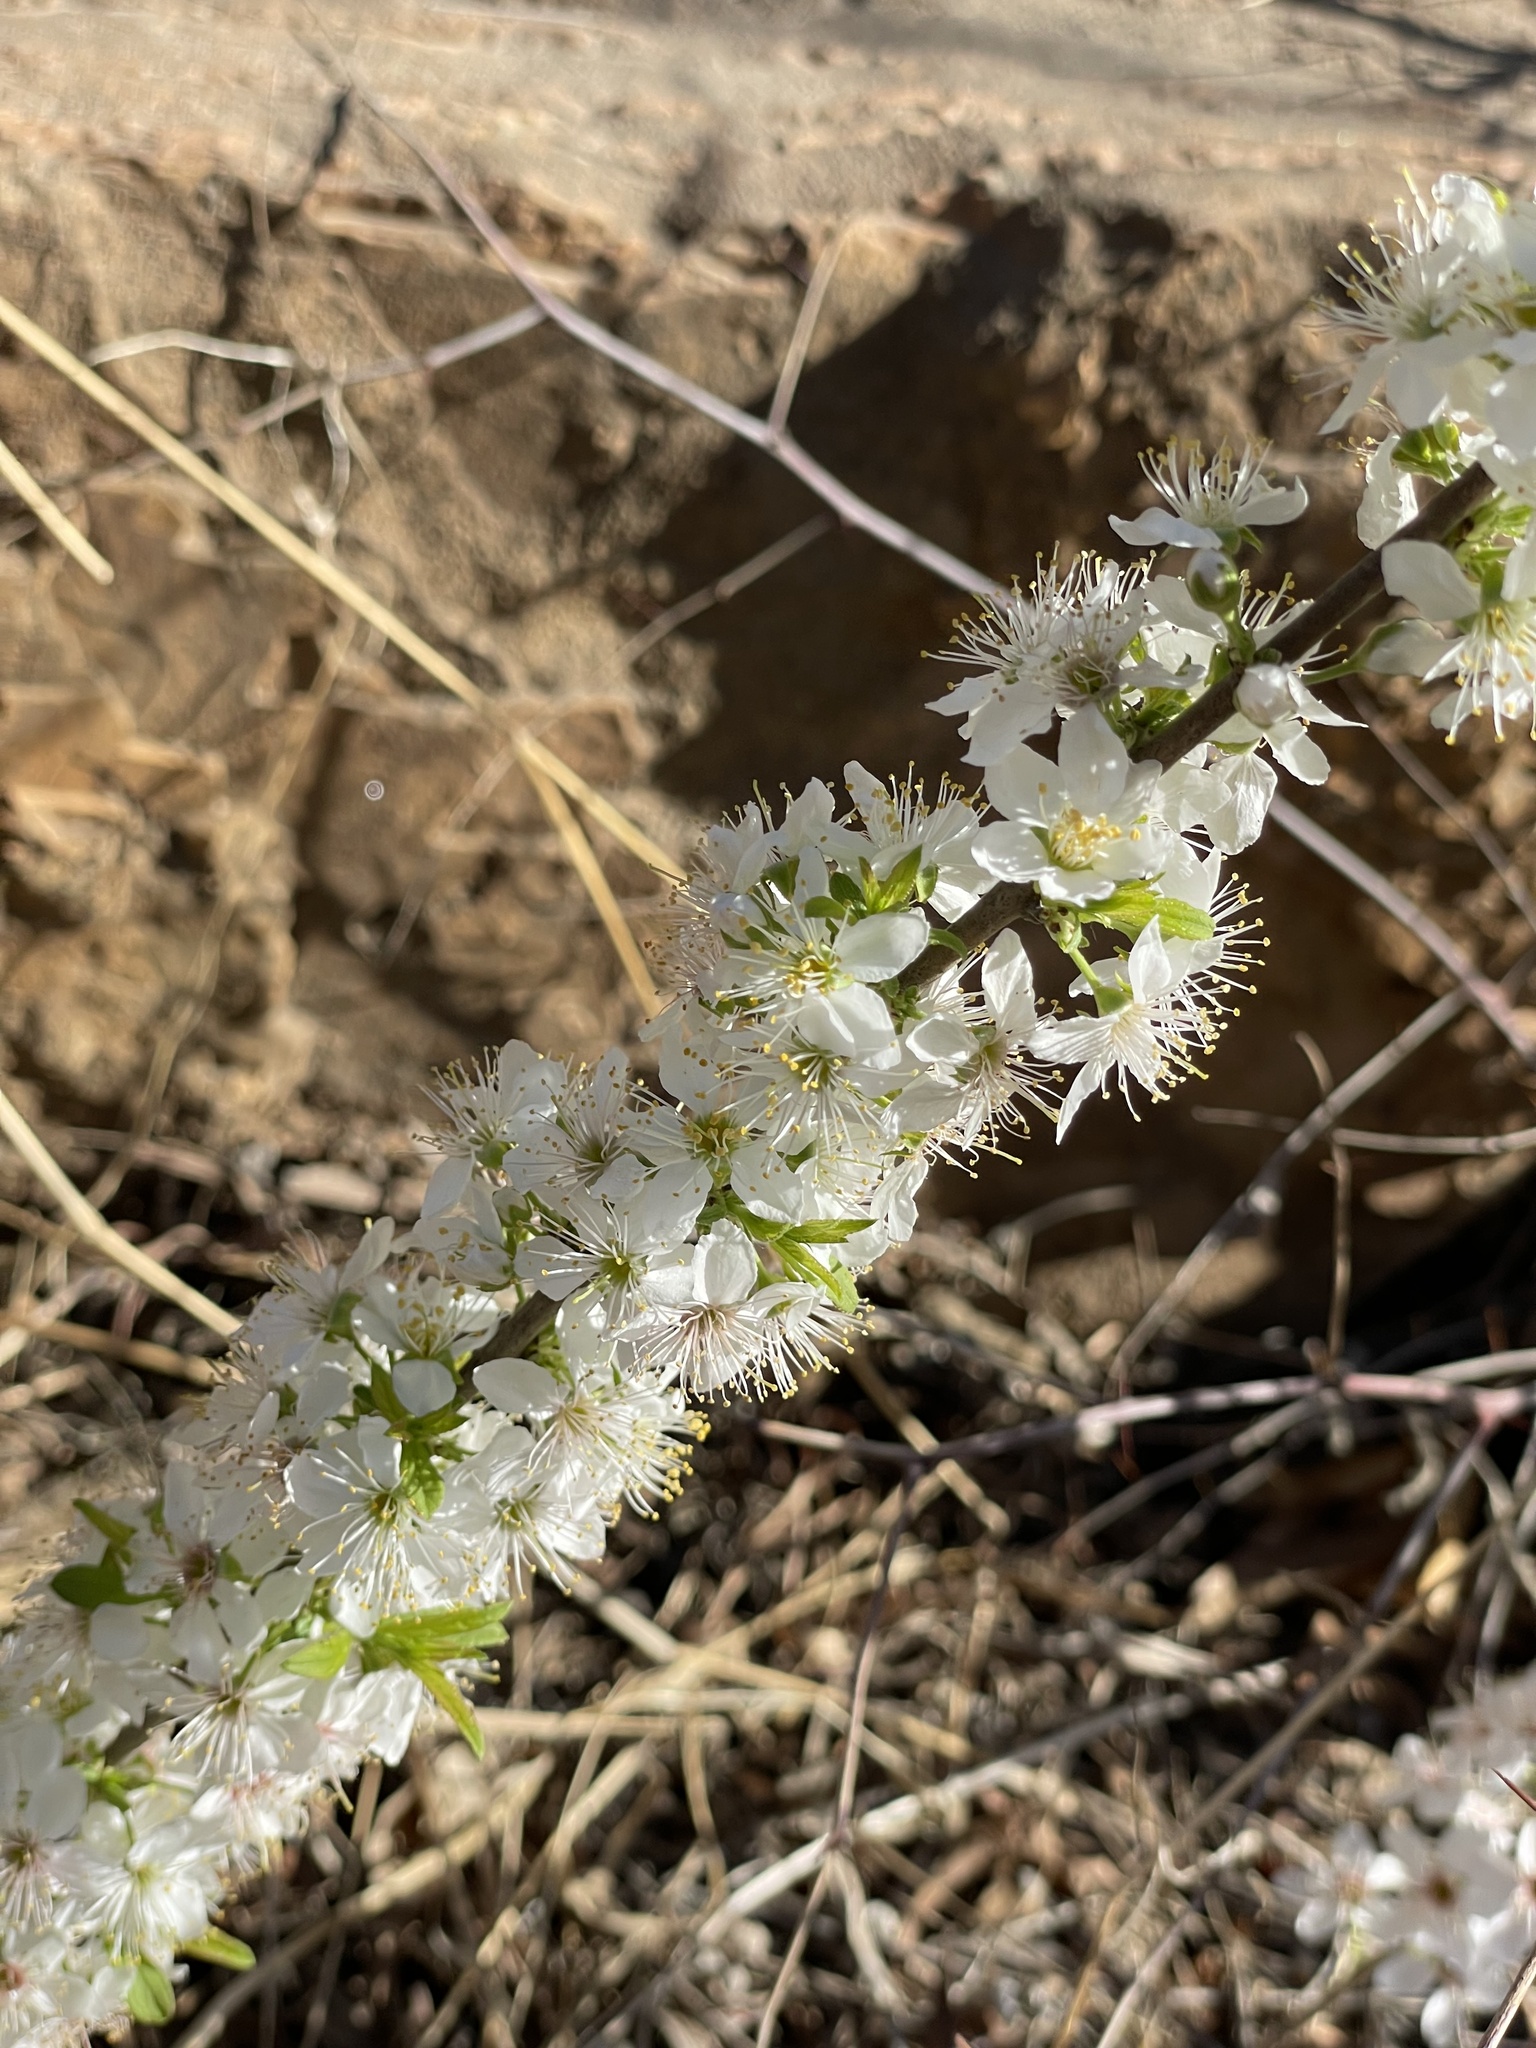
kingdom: Plantae
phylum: Tracheophyta
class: Magnoliopsida
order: Rosales
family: Rosaceae
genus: Prunus
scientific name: Prunus humilis
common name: Humble bush cherry
